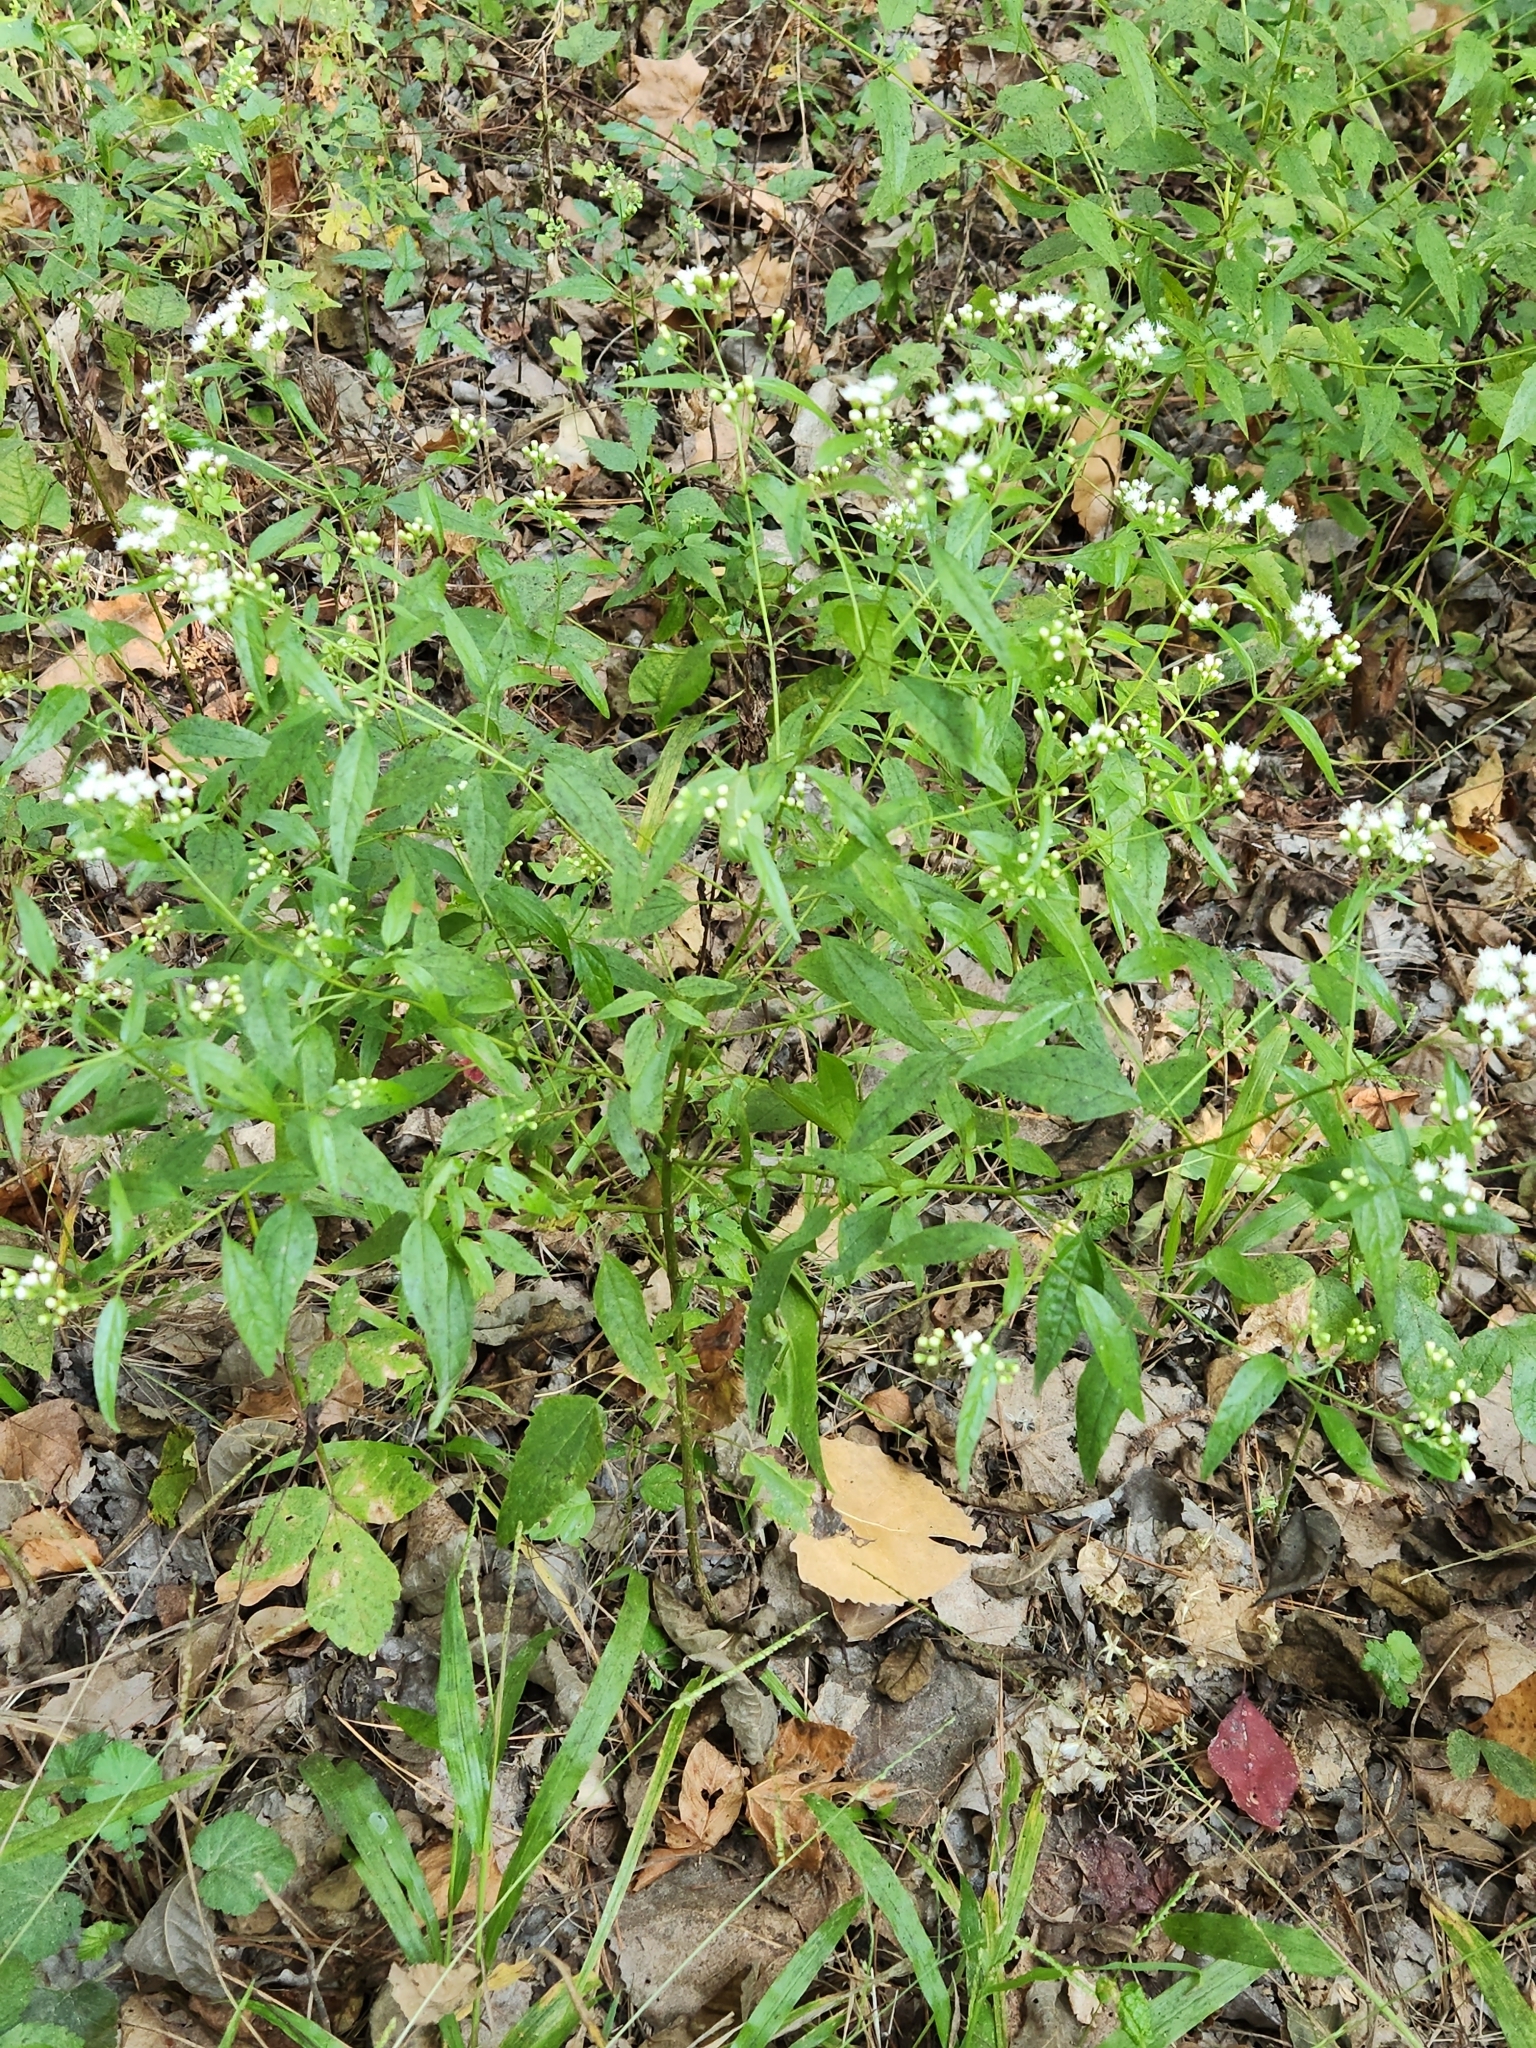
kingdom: Plantae
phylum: Tracheophyta
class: Magnoliopsida
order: Asterales
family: Asteraceae
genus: Ageratina
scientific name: Ageratina altissima
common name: White snakeroot
